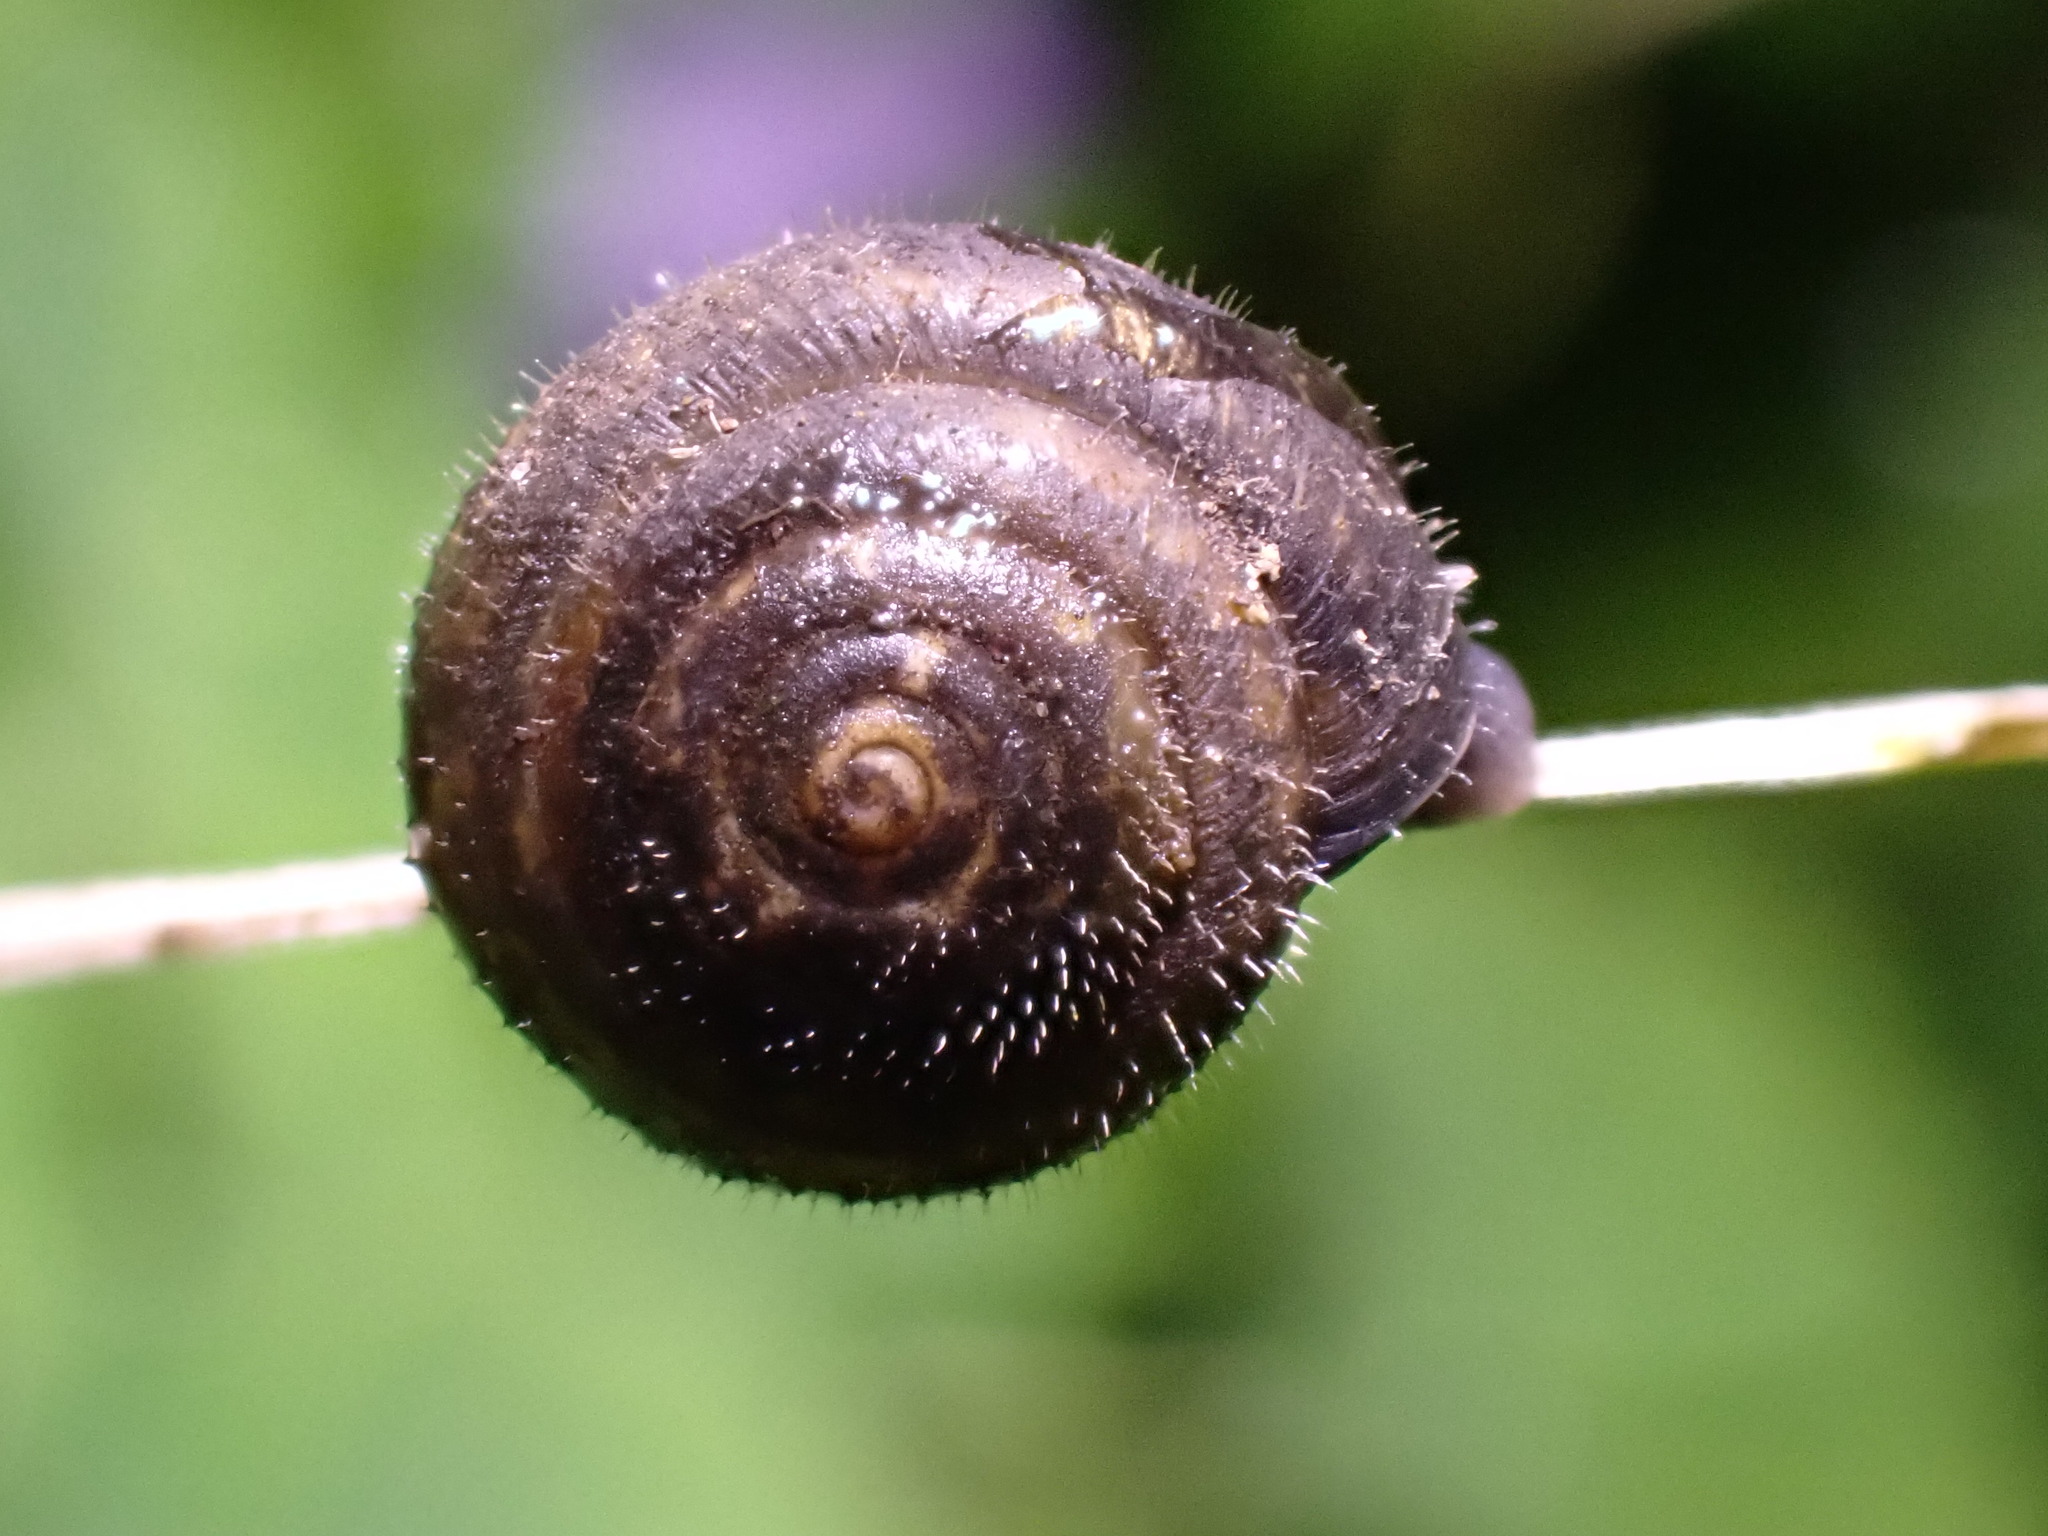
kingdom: Animalia
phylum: Mollusca
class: Gastropoda
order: Stylommatophora
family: Hygromiidae
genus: Trochulus
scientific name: Trochulus hispidus
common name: Hairy snail
